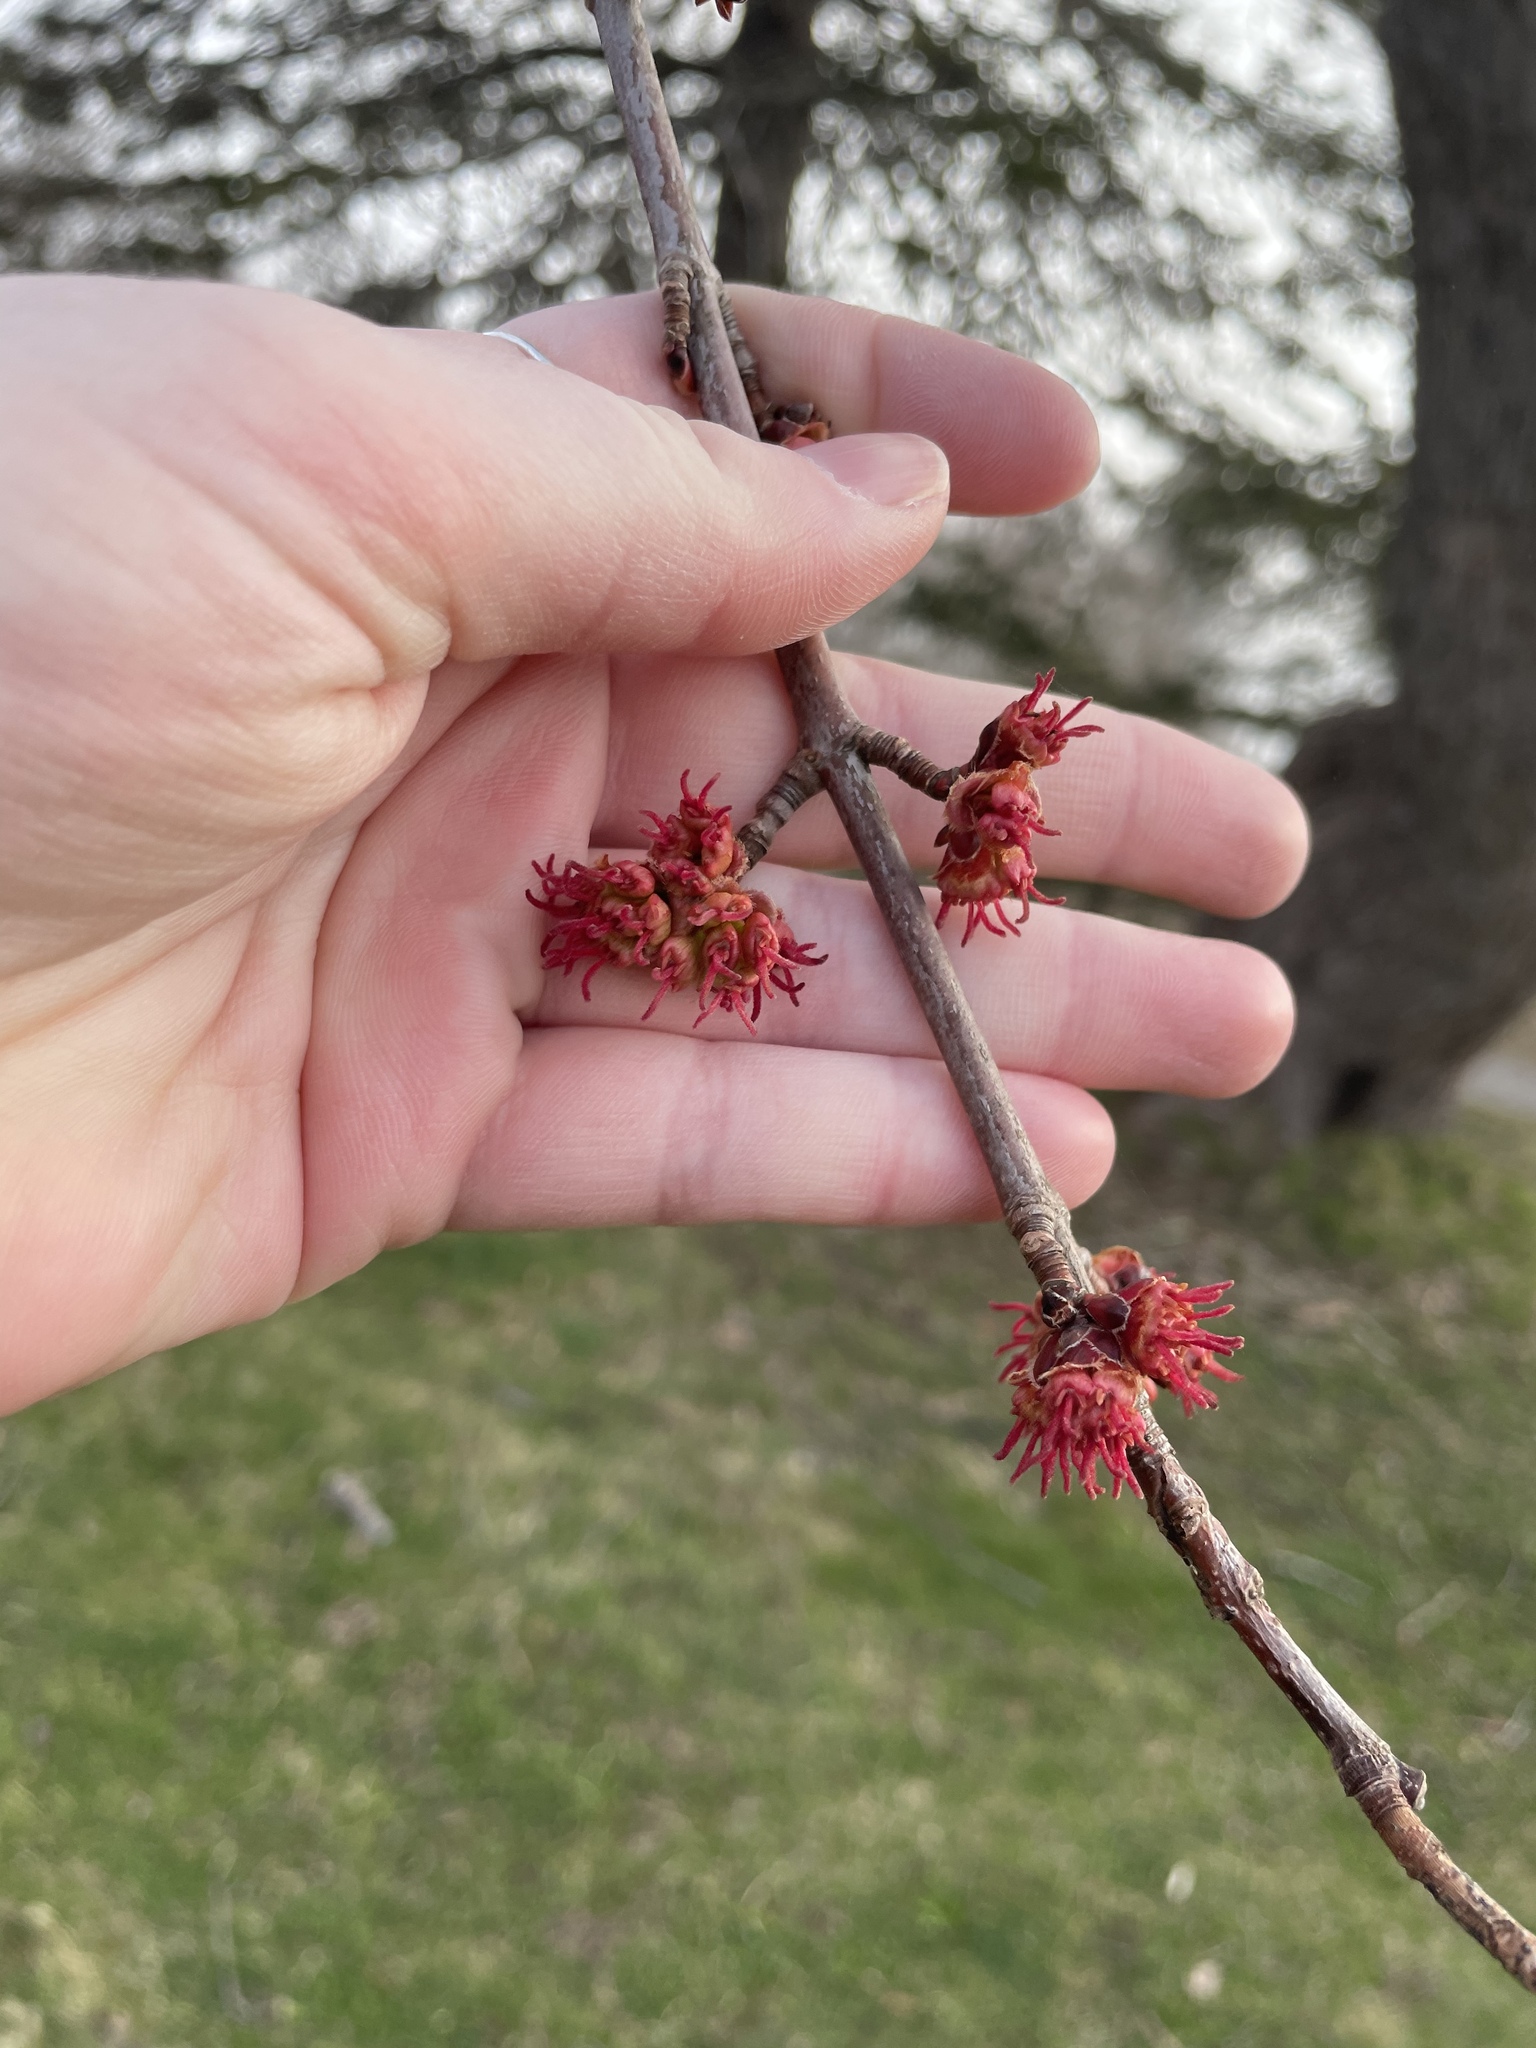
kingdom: Plantae
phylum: Tracheophyta
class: Magnoliopsida
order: Sapindales
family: Sapindaceae
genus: Acer
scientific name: Acer rubrum
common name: Red maple
